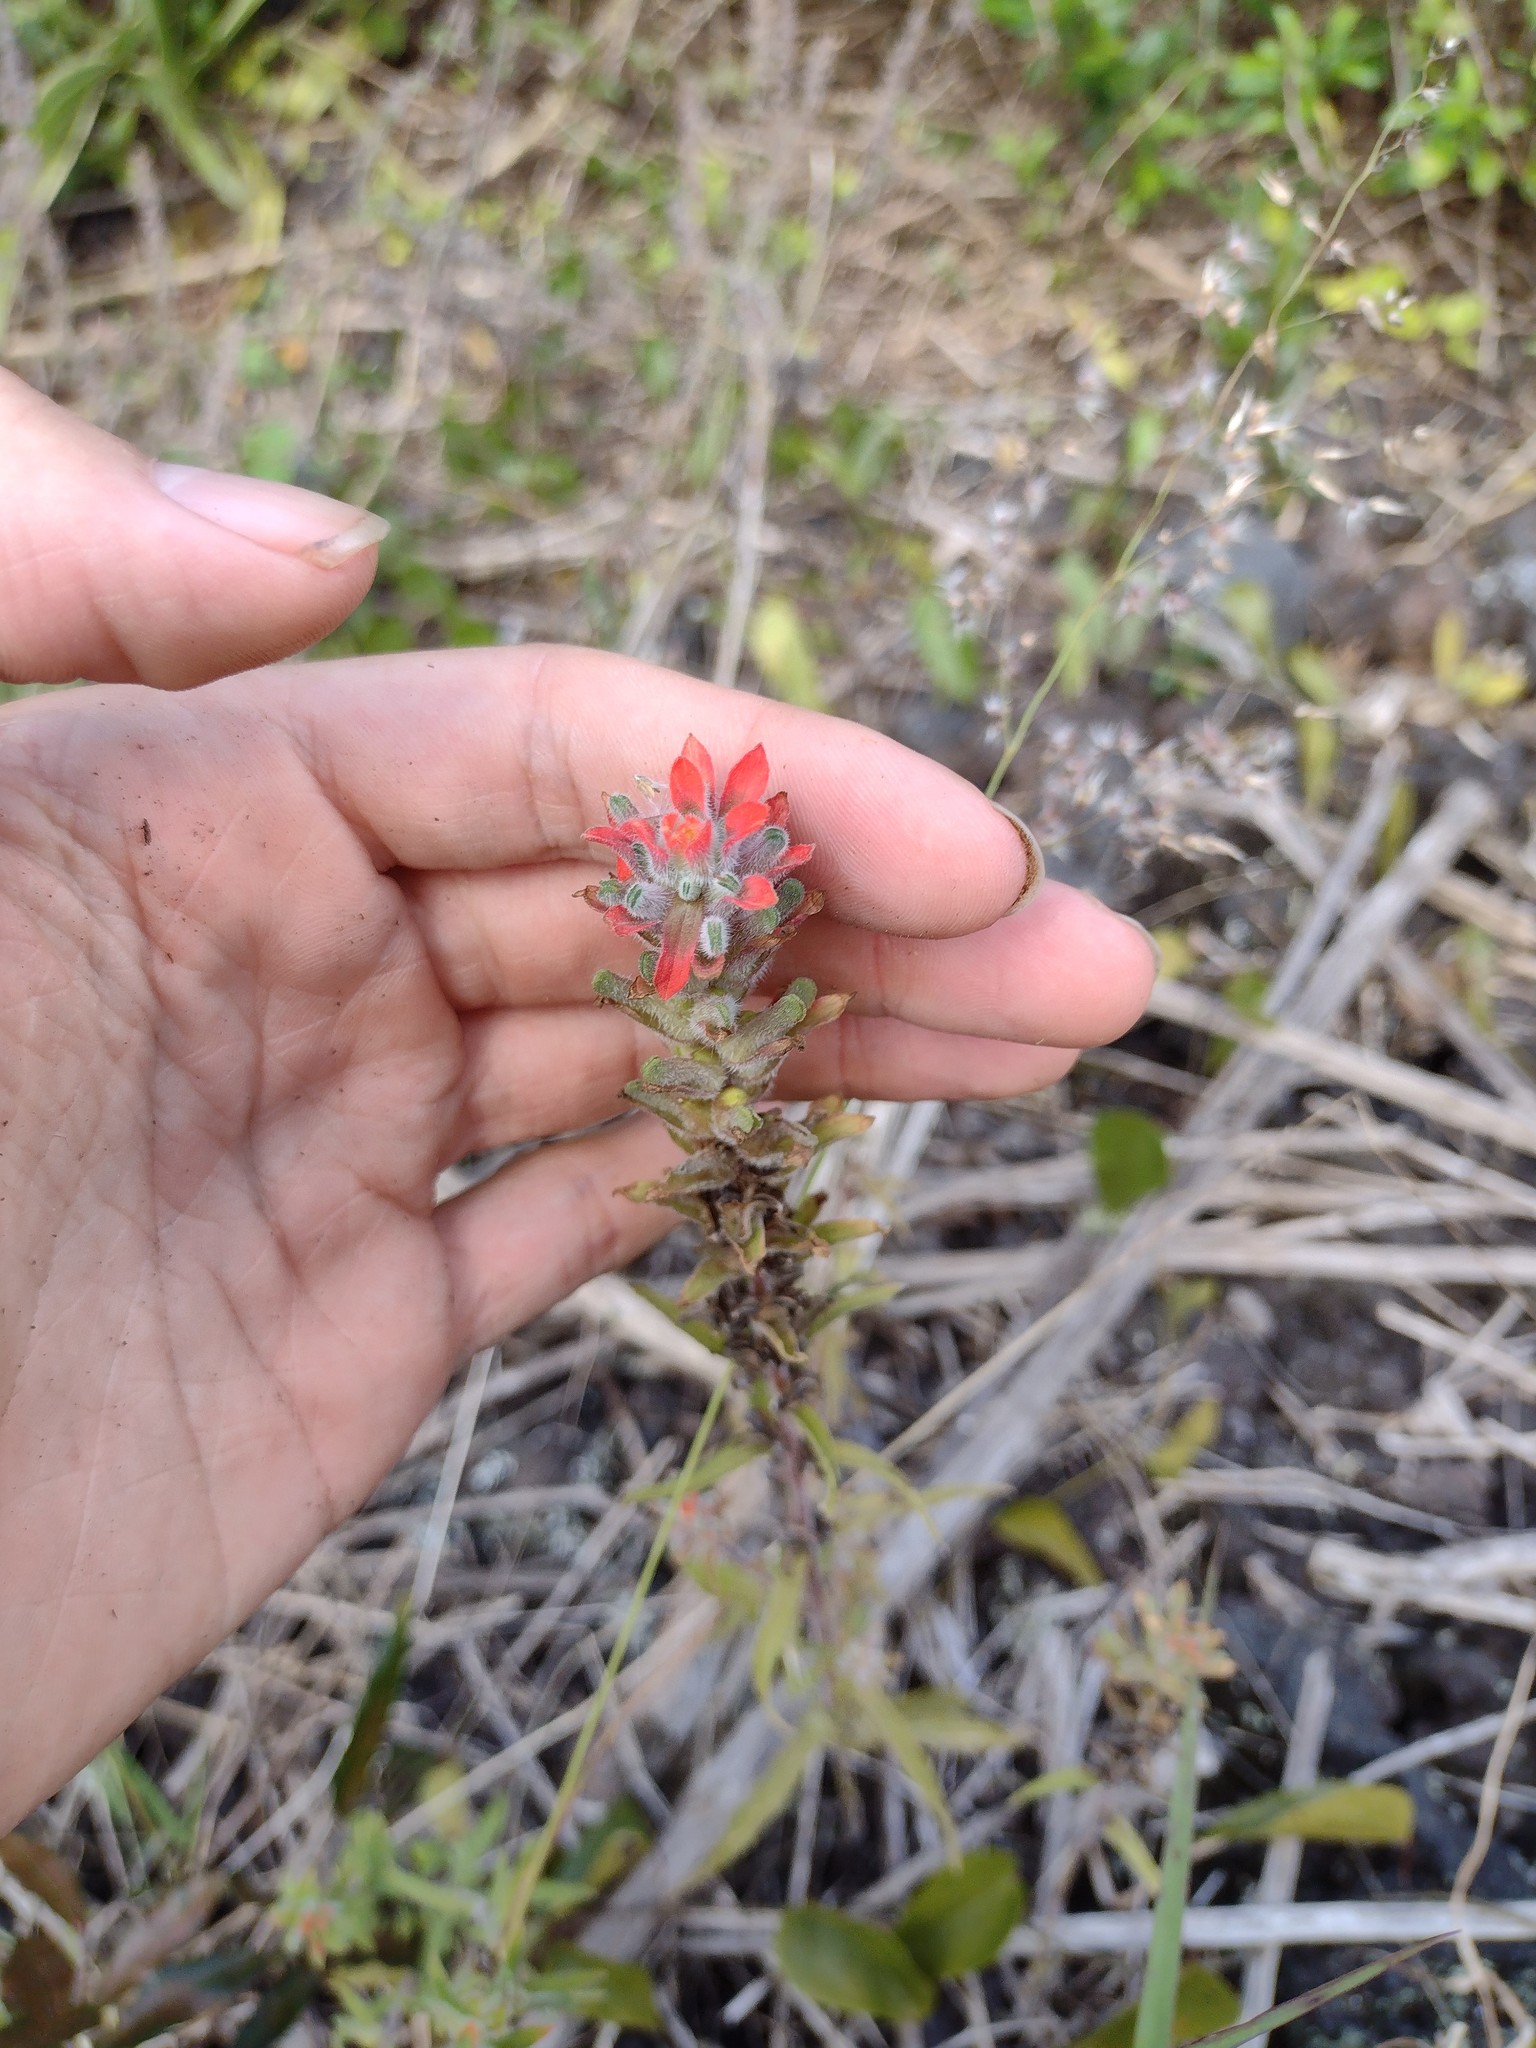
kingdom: Plantae
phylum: Tracheophyta
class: Magnoliopsida
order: Lamiales
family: Orobanchaceae
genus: Castilleja
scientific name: Castilleja arvensis
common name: Indian paintbrush
